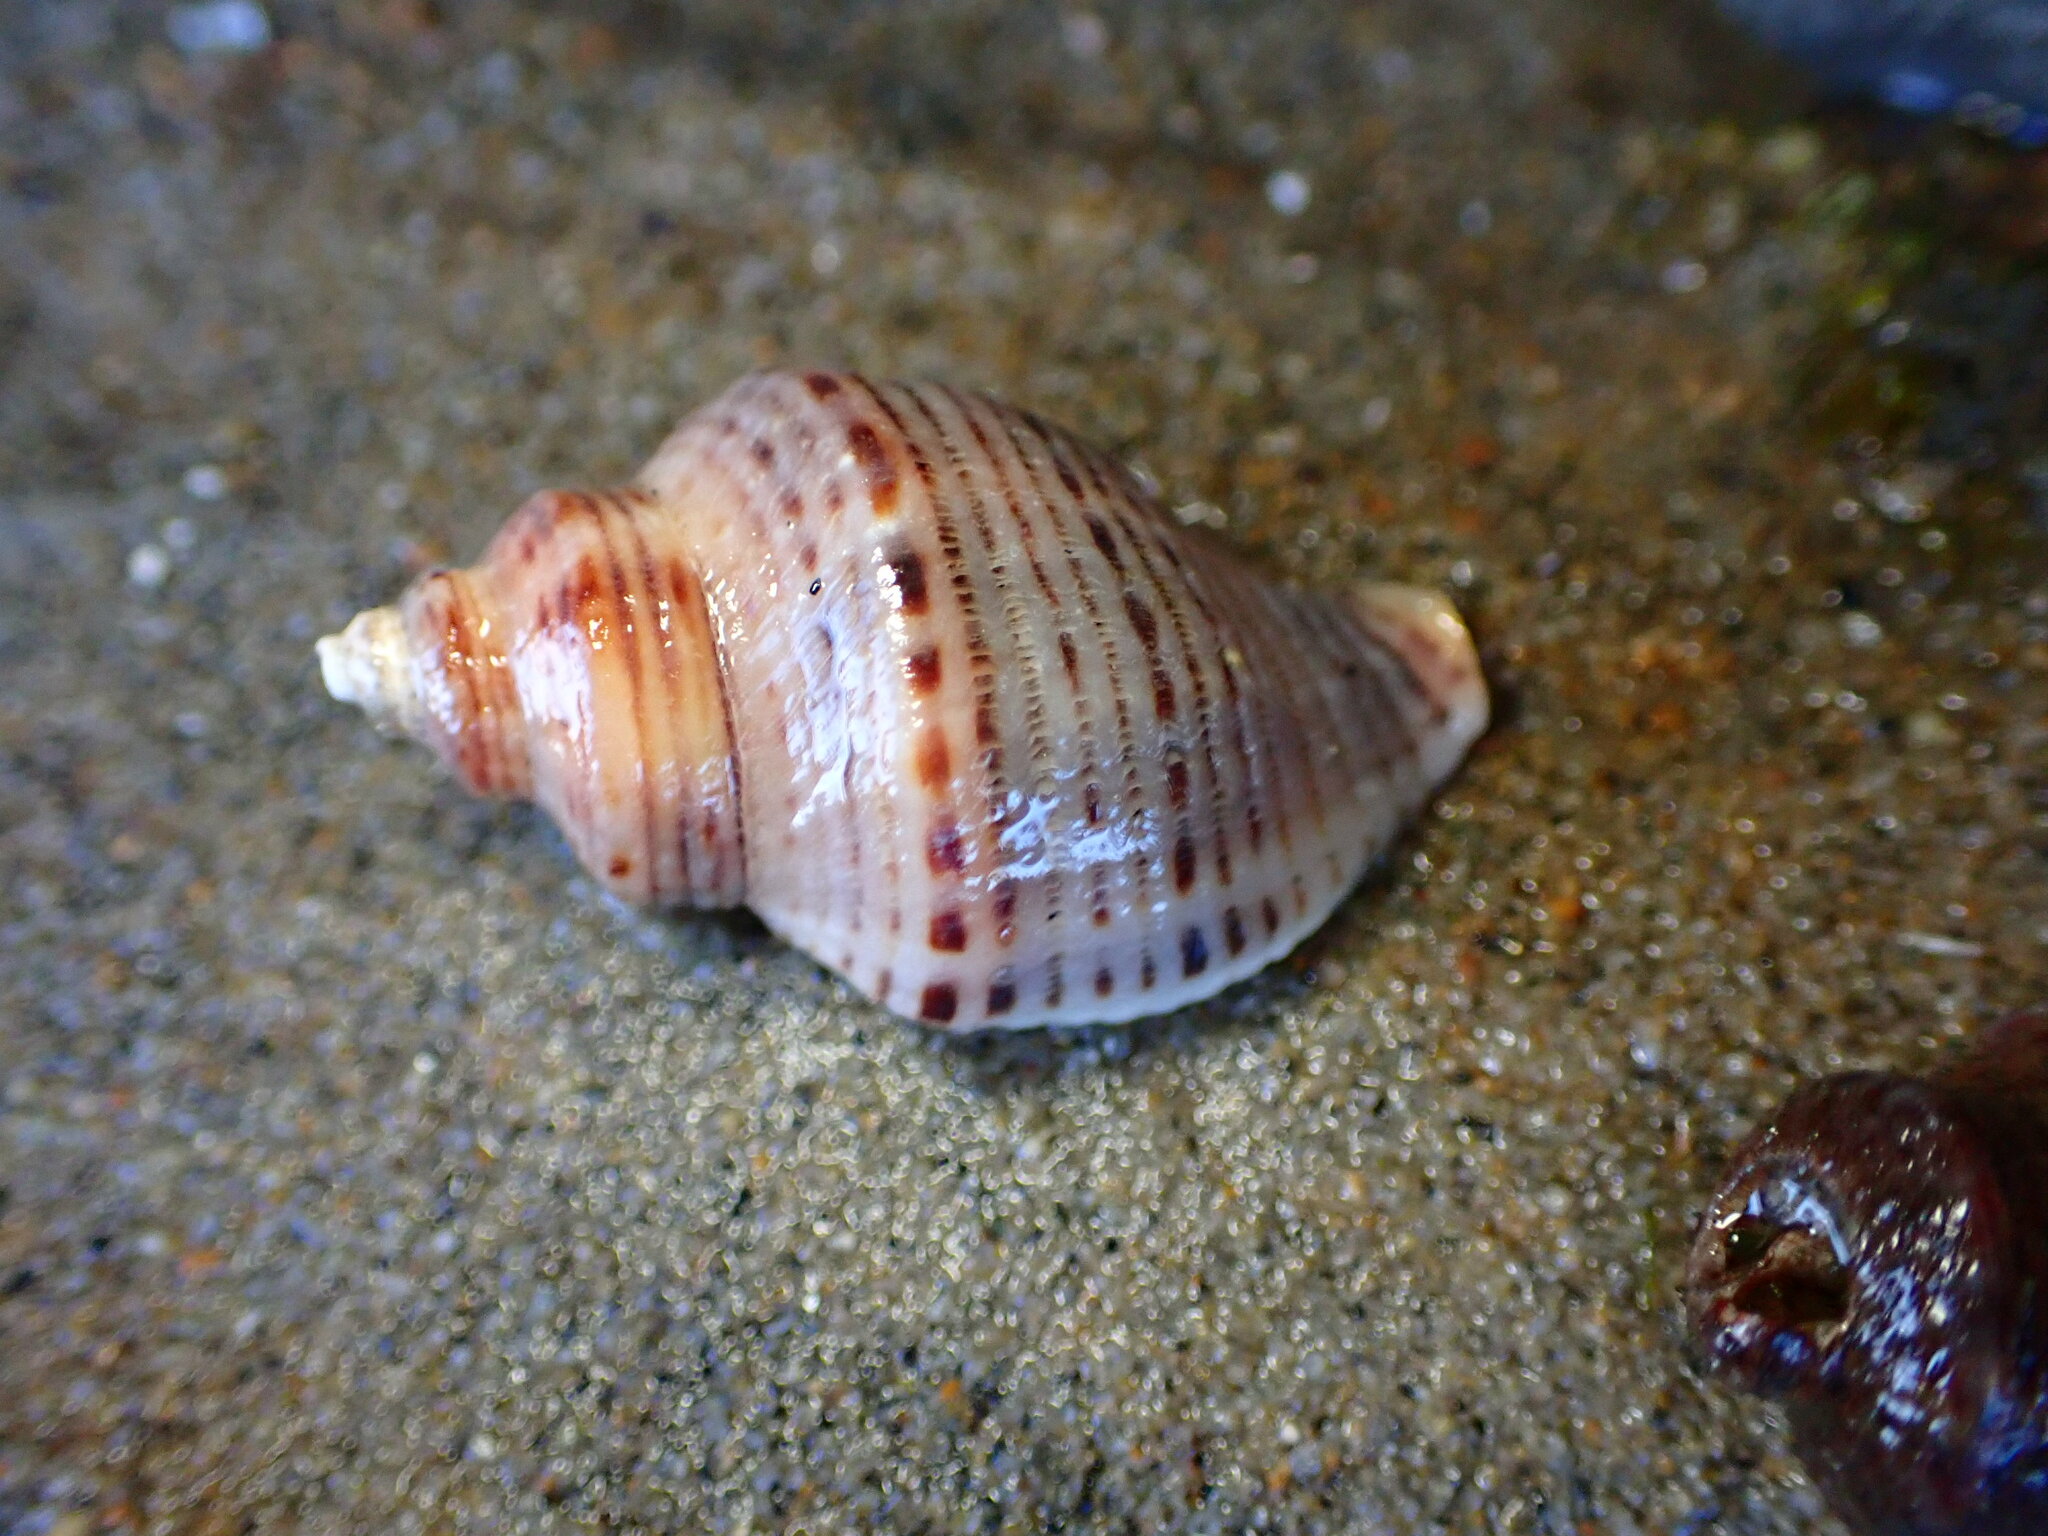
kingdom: Animalia
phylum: Mollusca
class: Gastropoda
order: Neogastropoda
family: Muricidae
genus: Acanthinucella
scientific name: Acanthinucella spirata
